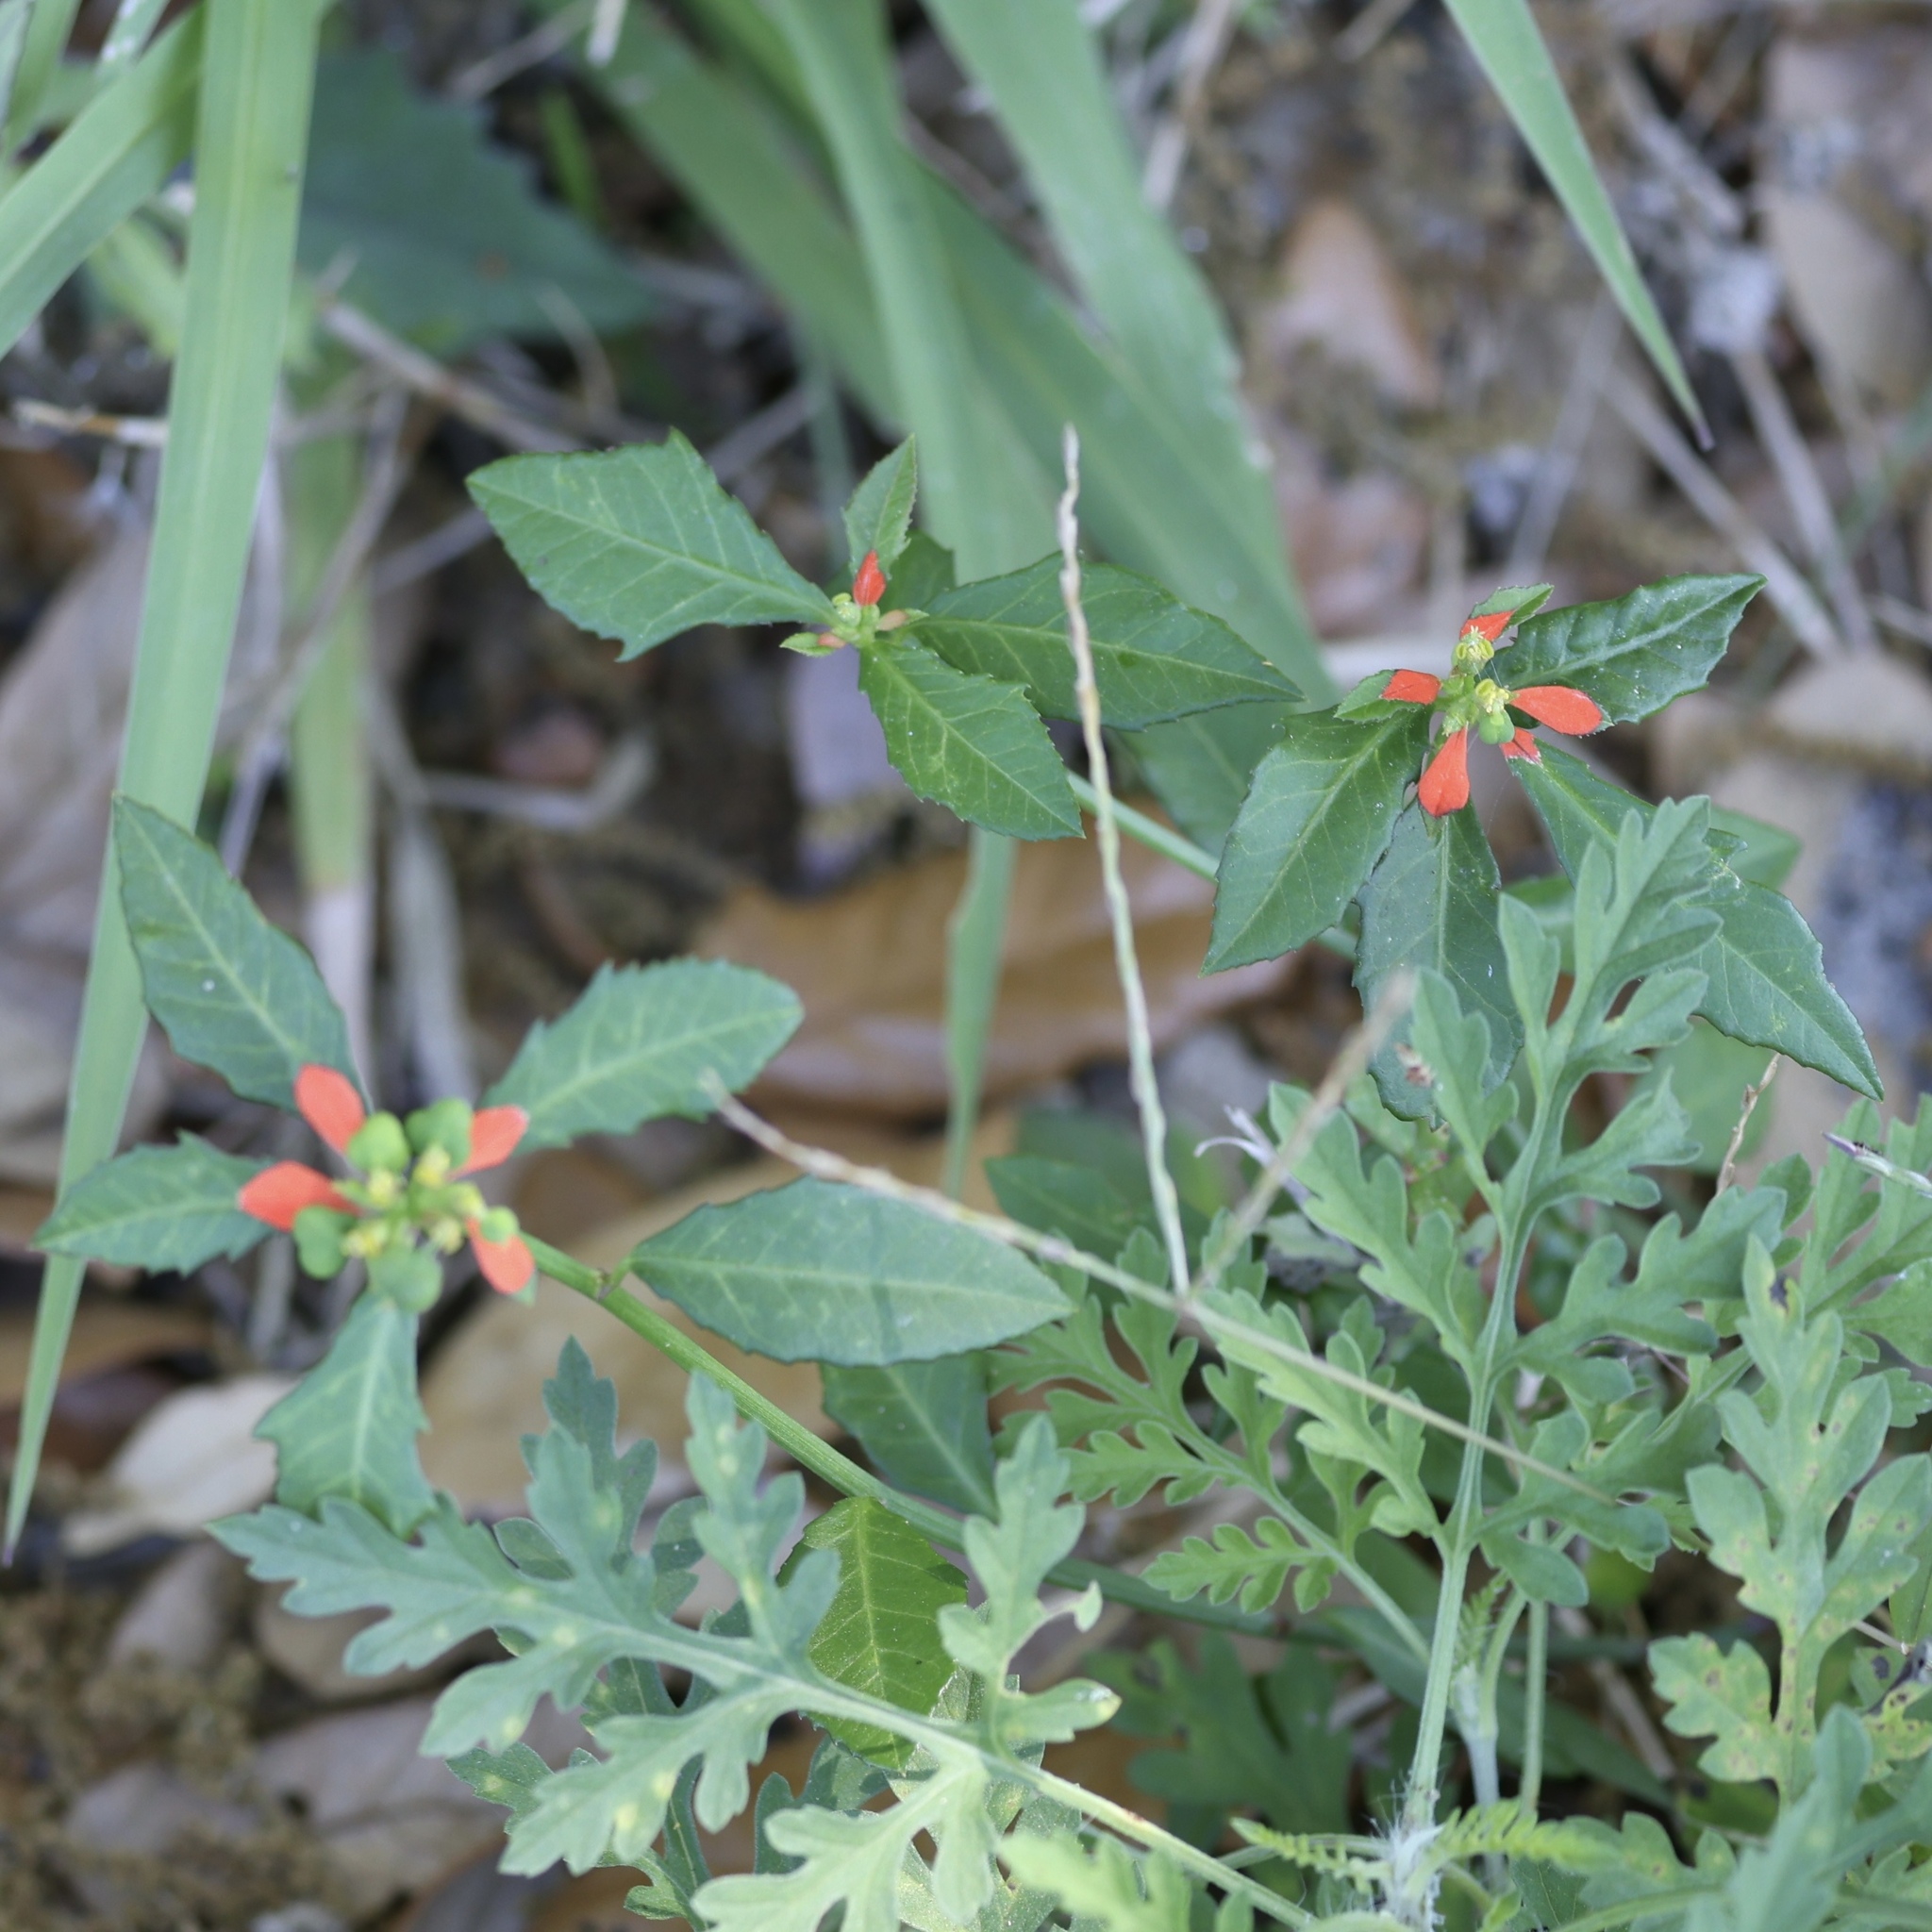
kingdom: Plantae
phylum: Tracheophyta
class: Magnoliopsida
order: Malpighiales
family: Euphorbiaceae
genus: Euphorbia
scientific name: Euphorbia heterophylla
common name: Mexican fireplant
